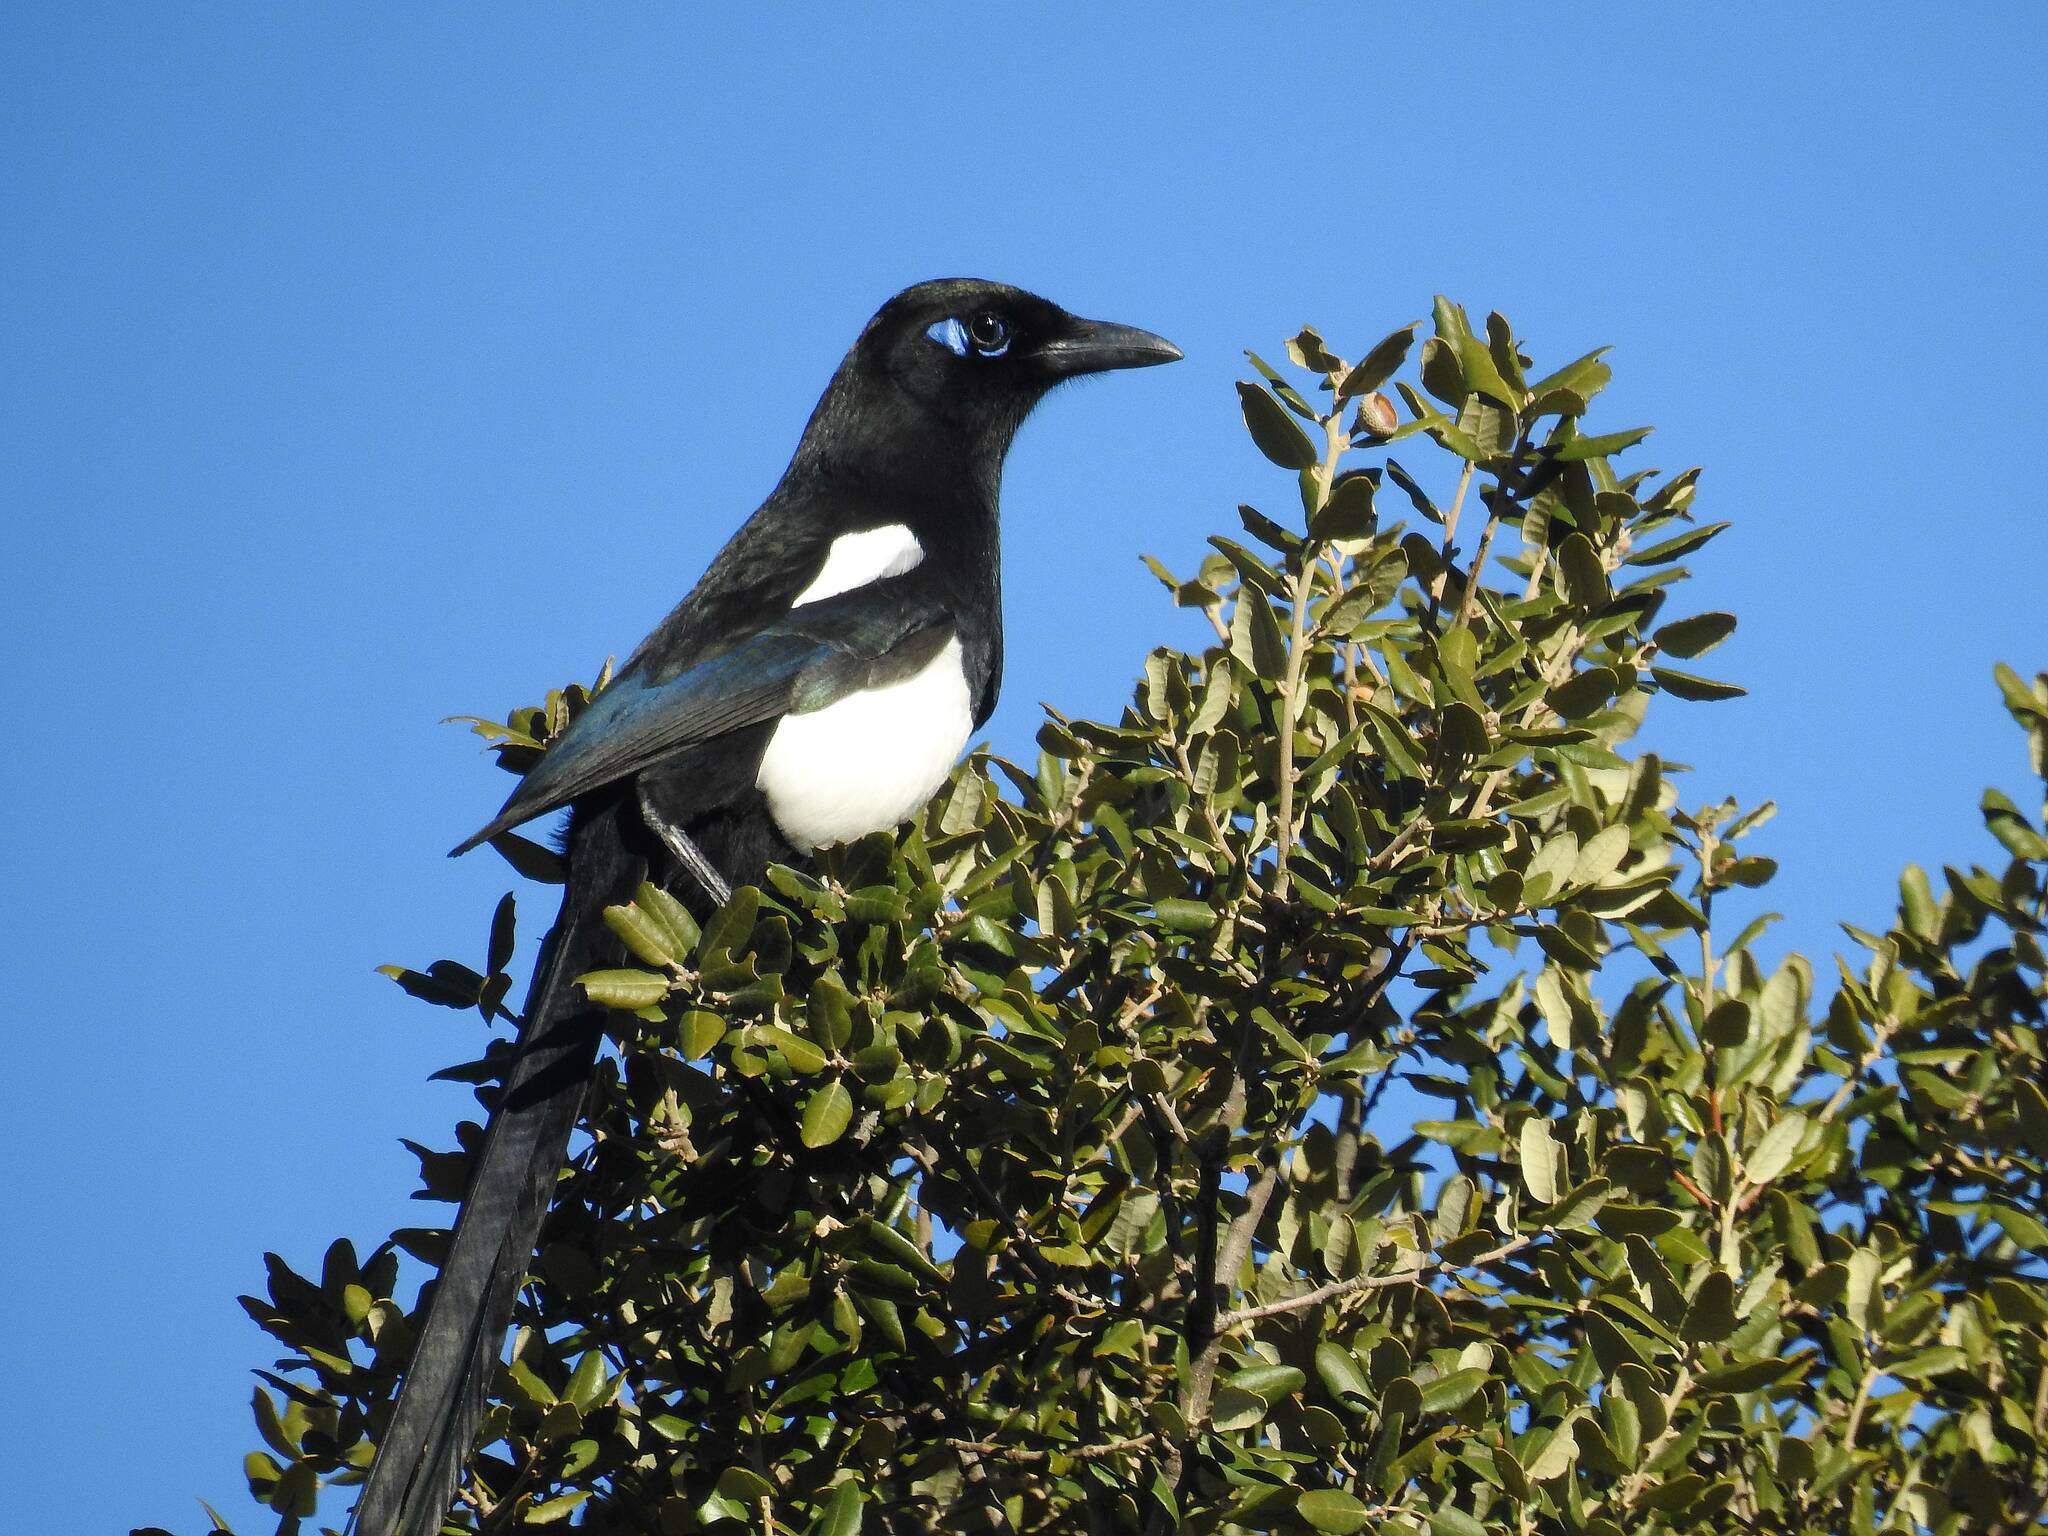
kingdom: Animalia
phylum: Chordata
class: Aves
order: Passeriformes
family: Corvidae
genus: Pica
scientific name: Pica mauritanica
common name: Maghreb magpie
